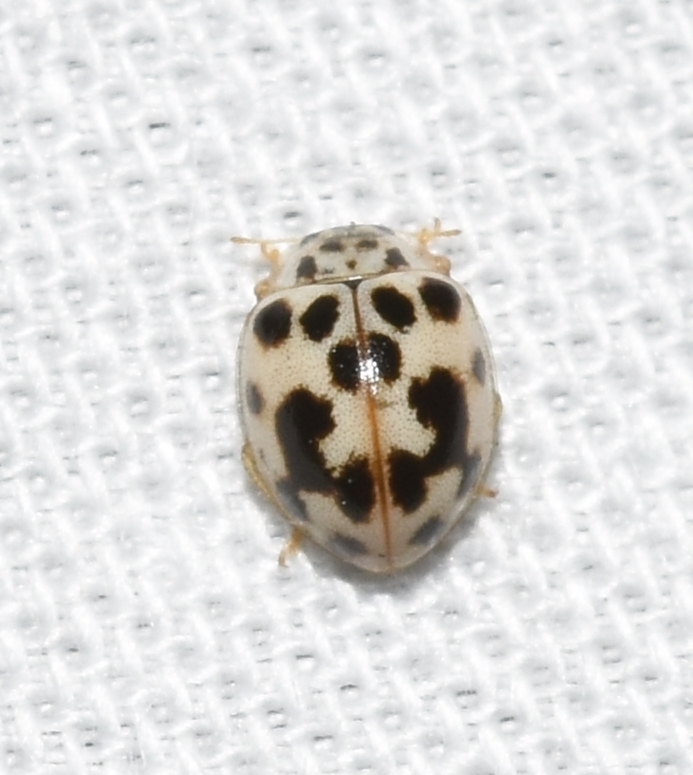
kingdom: Animalia
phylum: Arthropoda
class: Insecta
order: Coleoptera
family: Coccinellidae
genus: Psyllobora
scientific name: Psyllobora vigintimaculata
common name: Ladybird beetle
